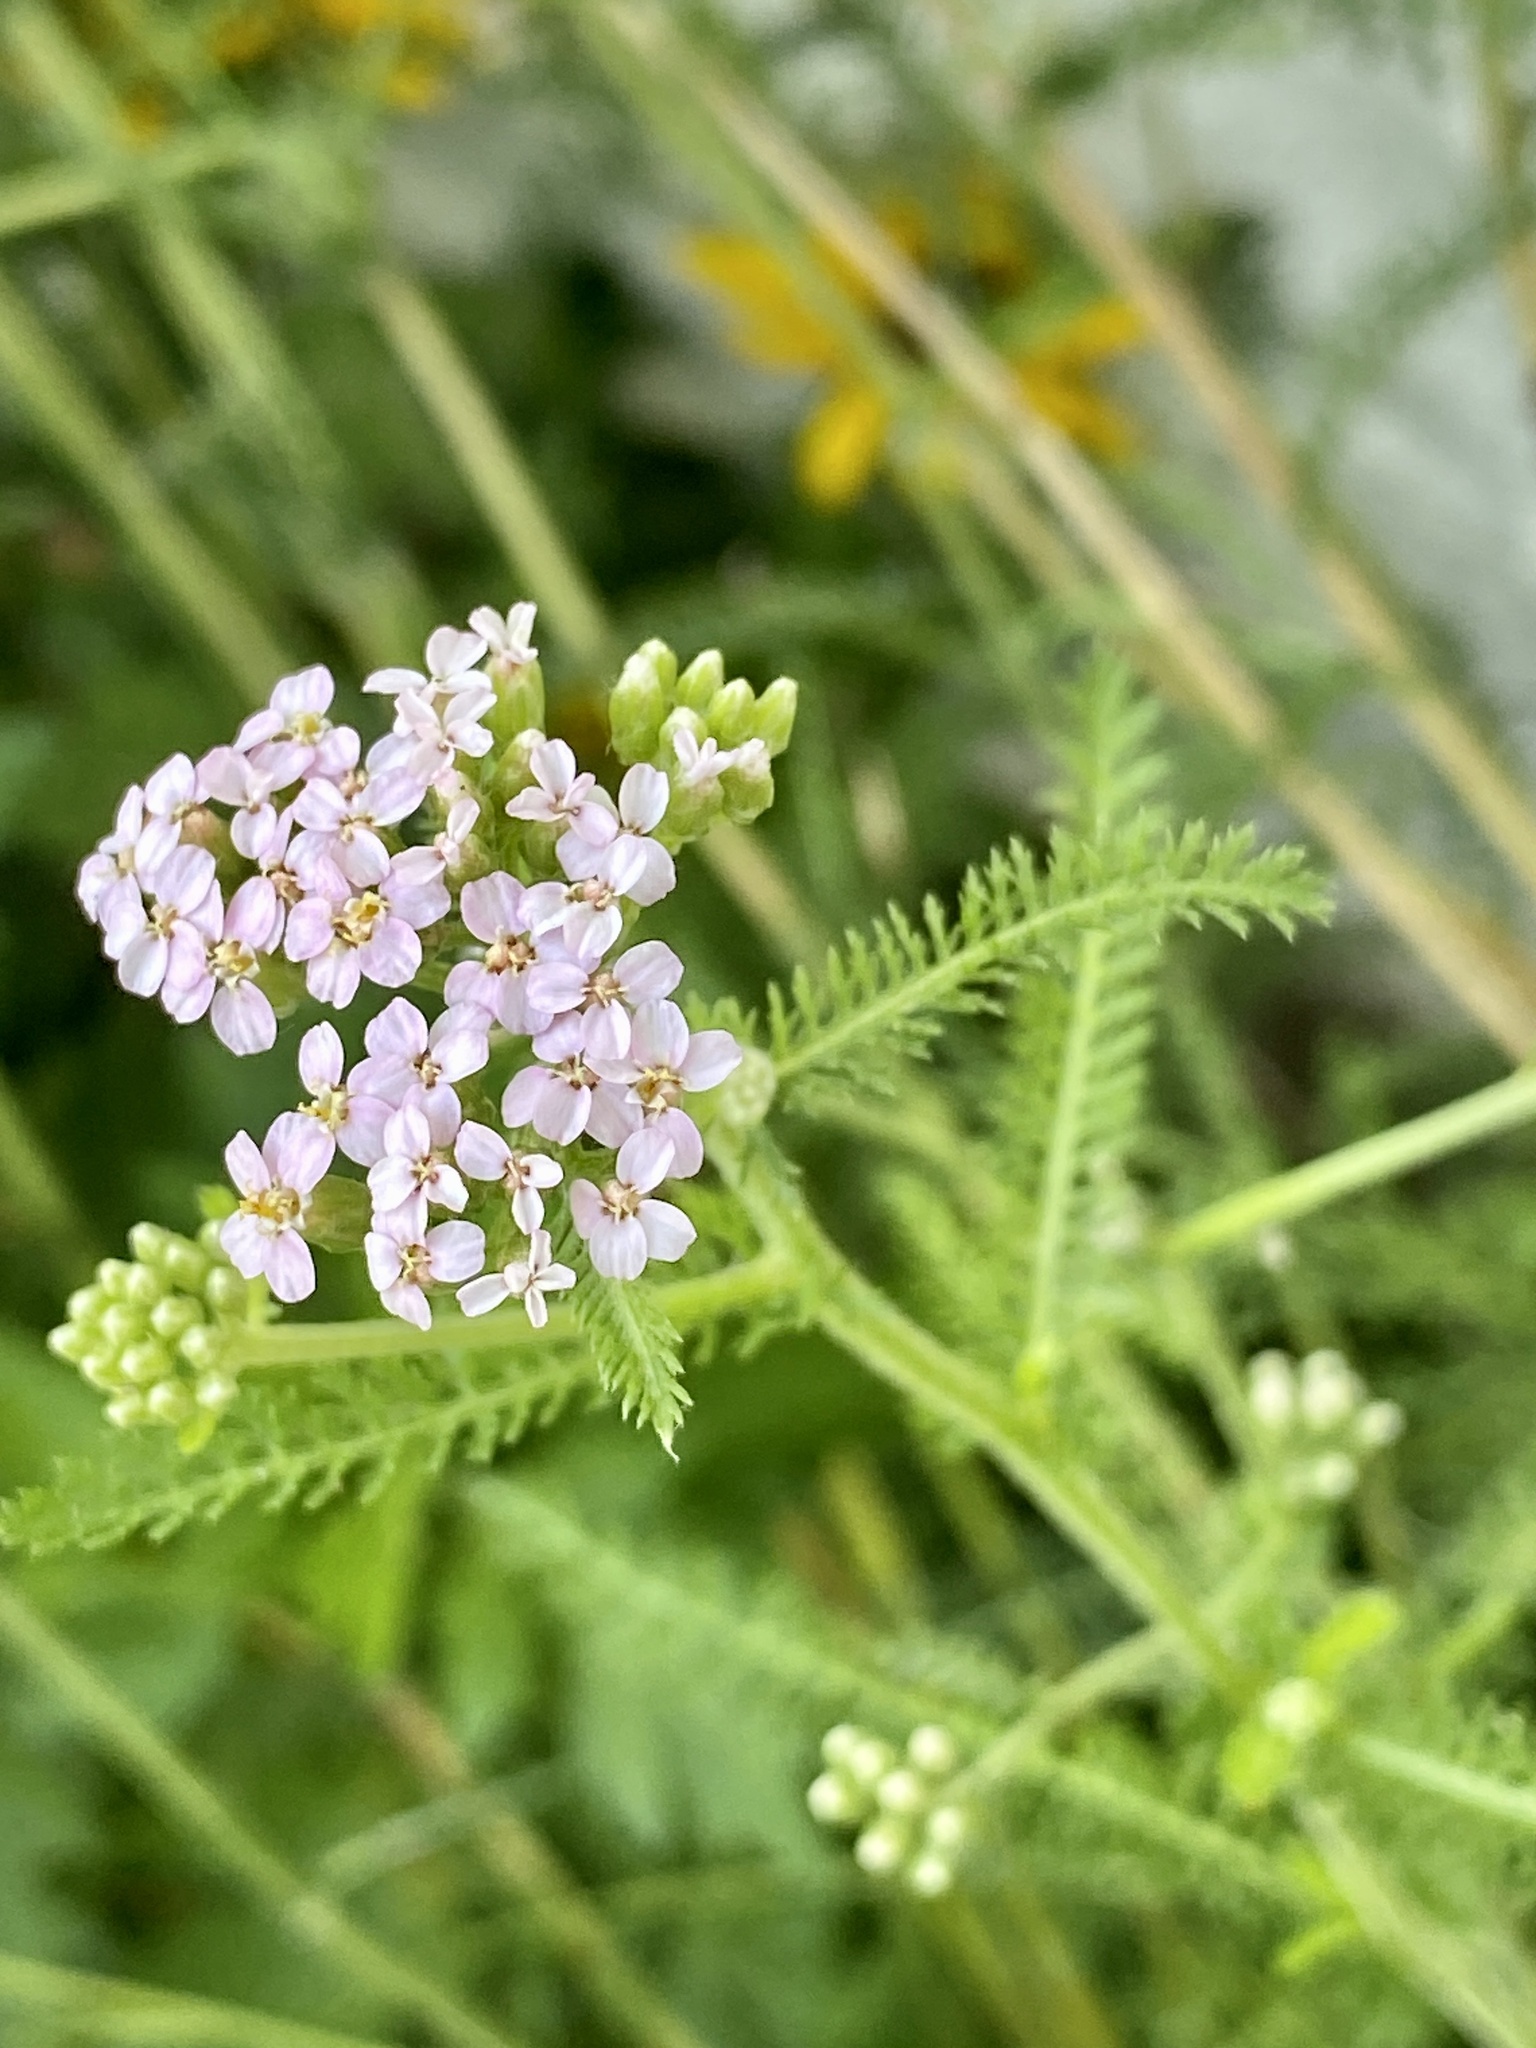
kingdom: Plantae
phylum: Tracheophyta
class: Magnoliopsida
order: Asterales
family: Asteraceae
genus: Achillea
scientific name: Achillea millefolium
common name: Yarrow
